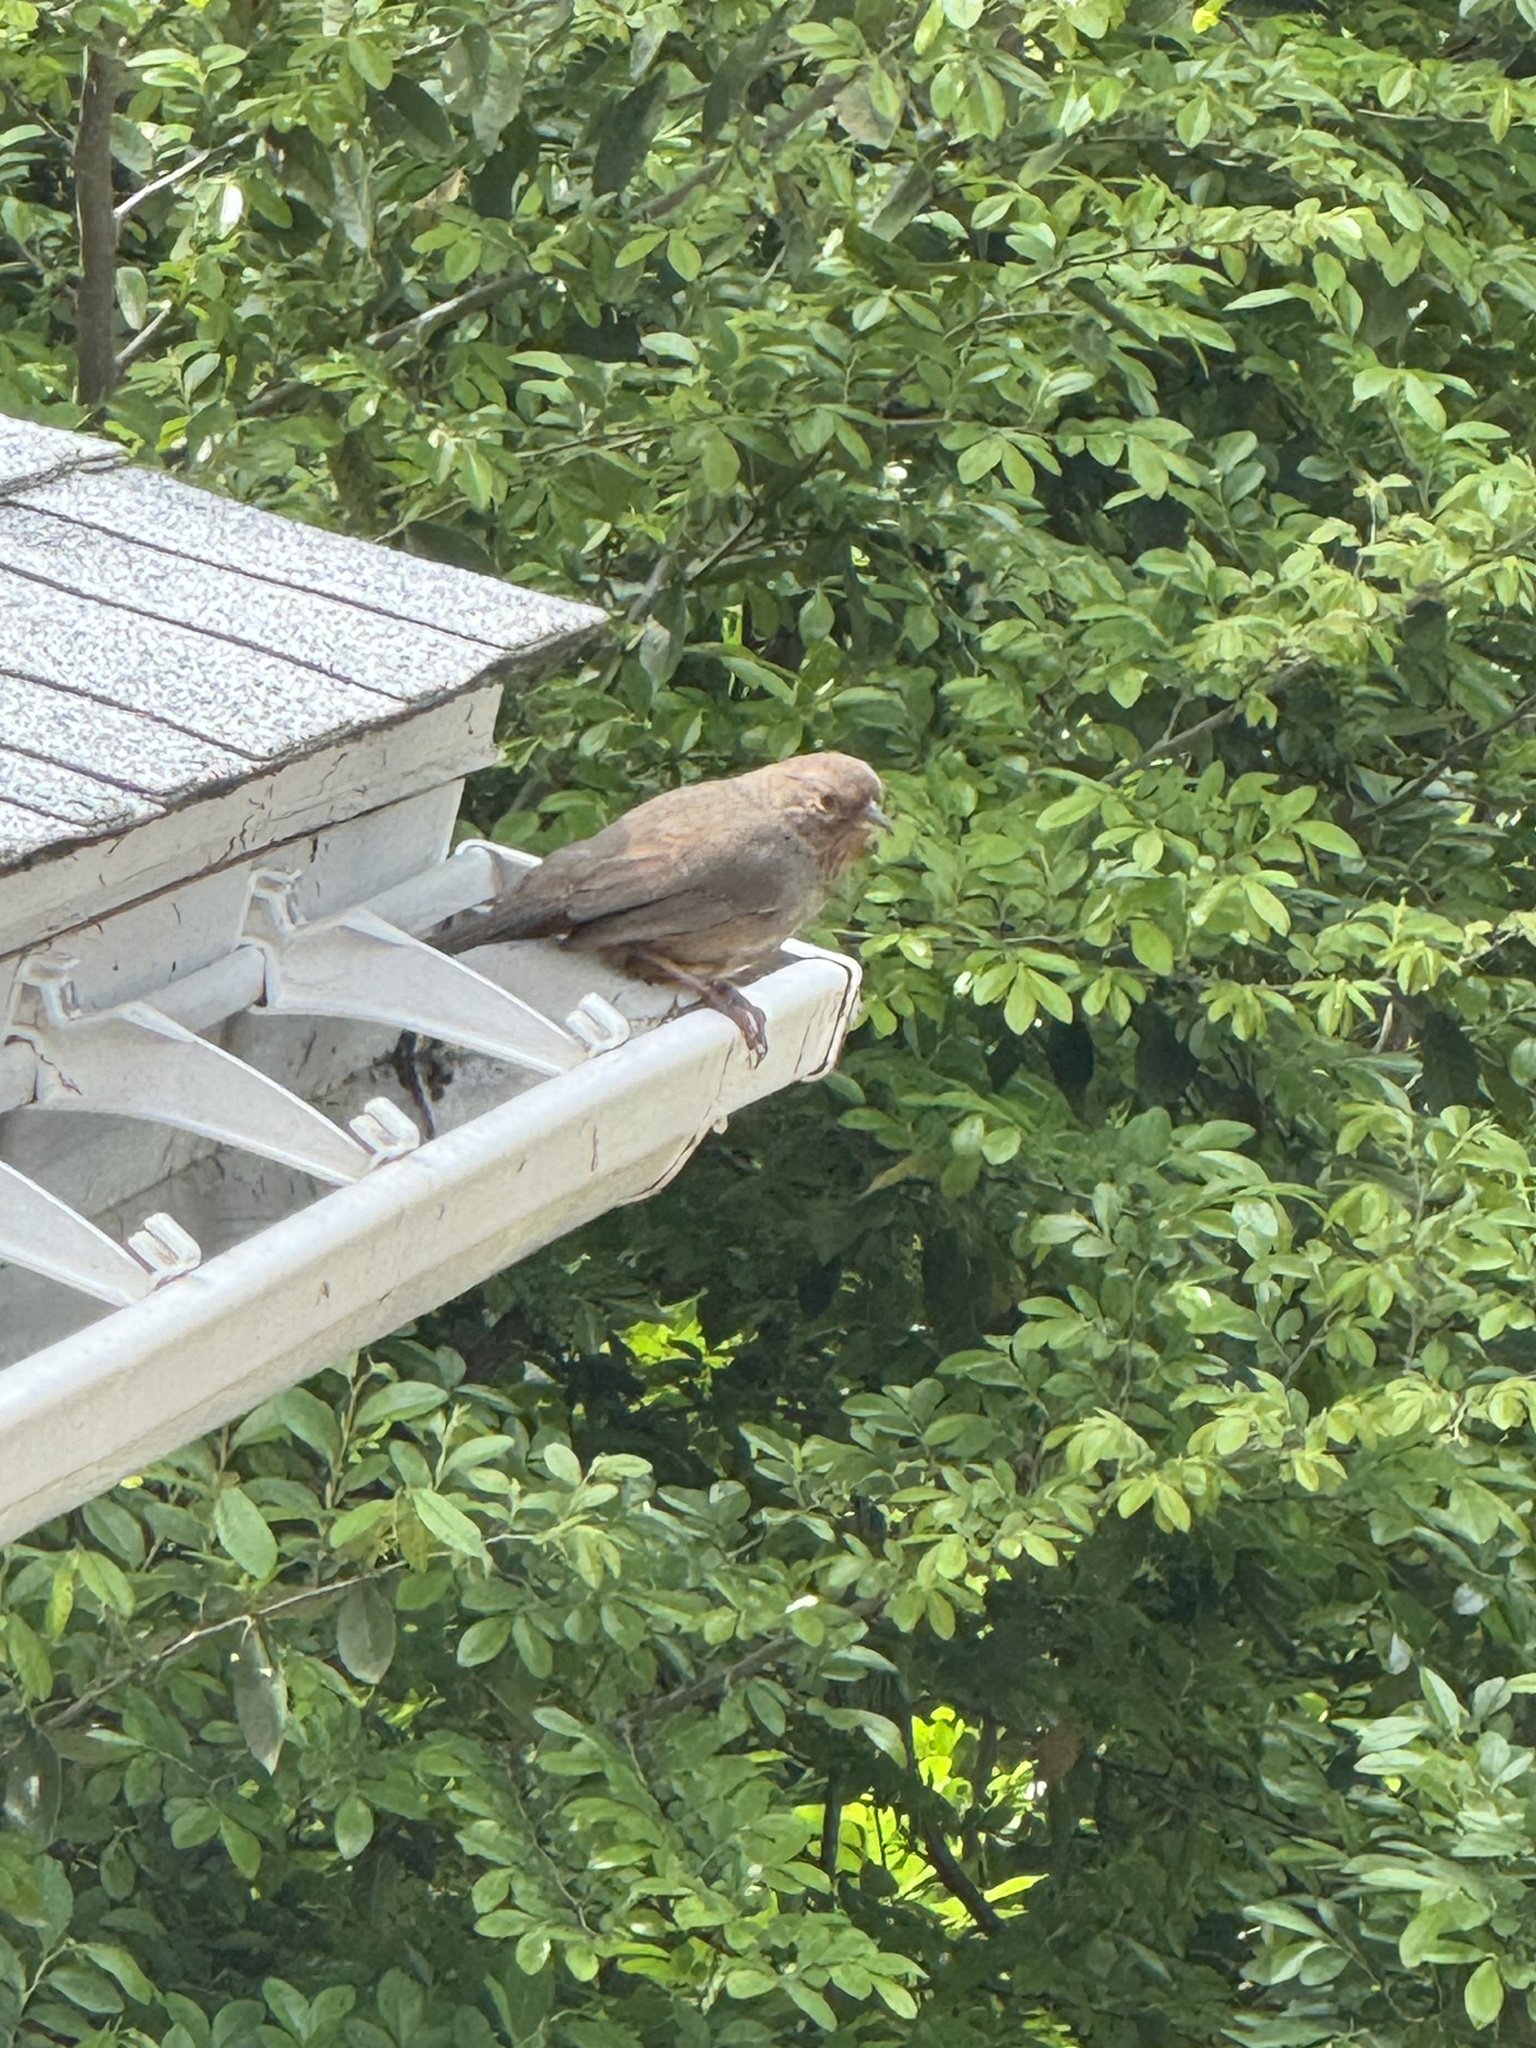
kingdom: Animalia
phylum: Chordata
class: Aves
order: Passeriformes
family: Passerellidae
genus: Melozone
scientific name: Melozone crissalis
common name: California towhee
